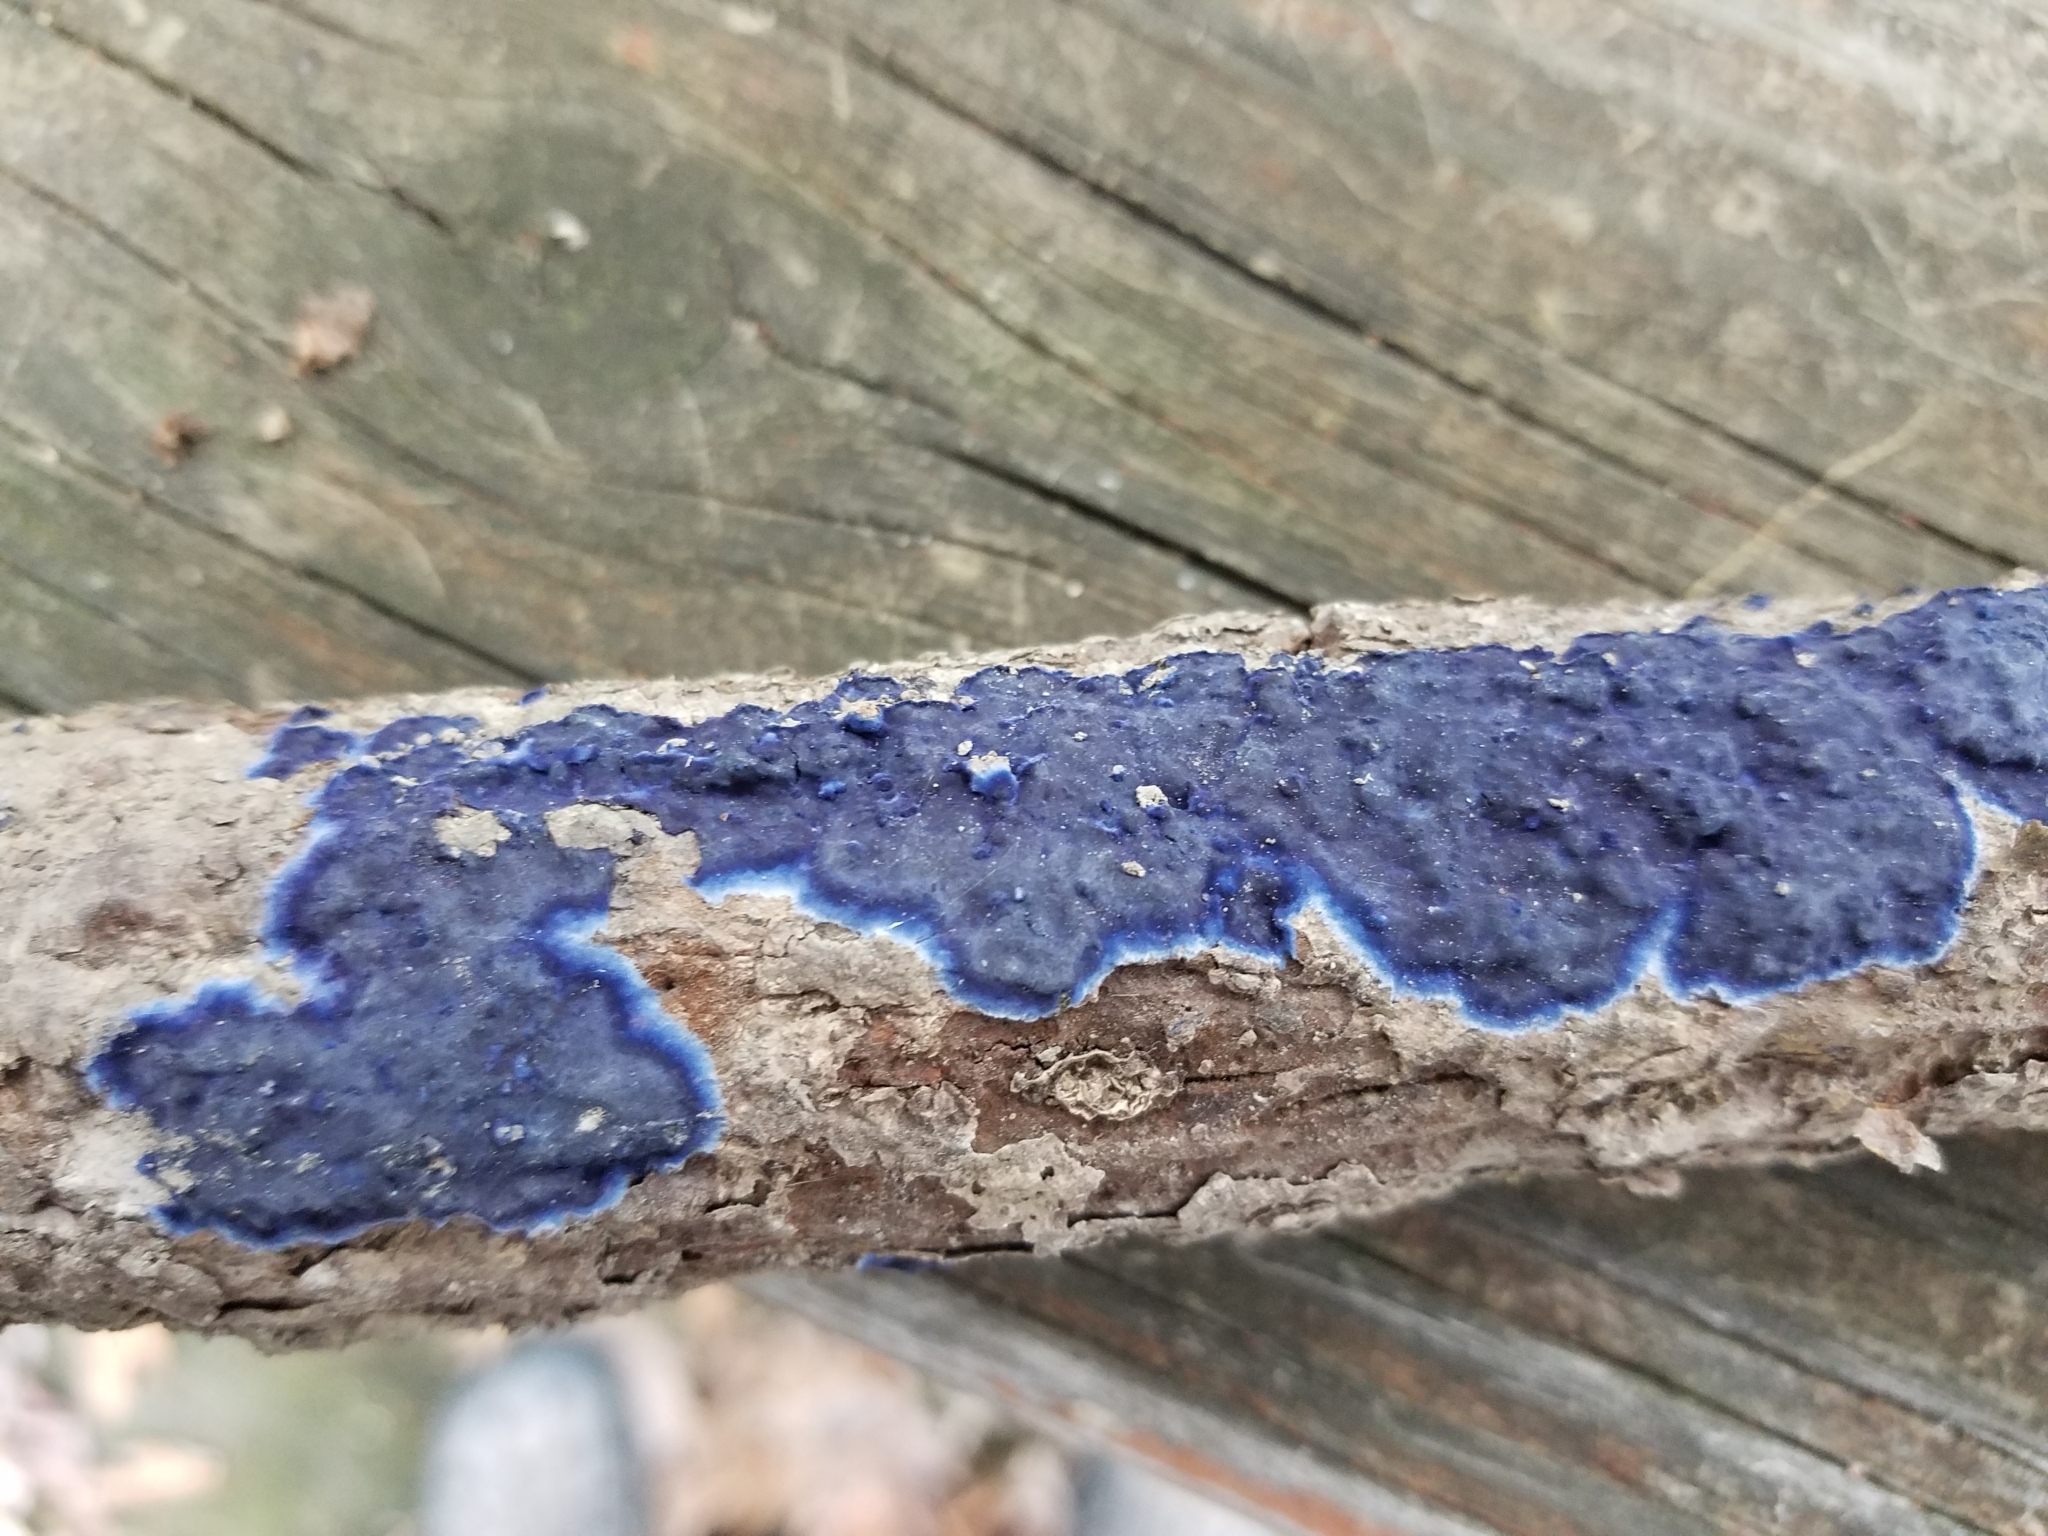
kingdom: Fungi
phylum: Basidiomycota
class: Agaricomycetes
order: Polyporales
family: Phanerochaetaceae
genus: Terana
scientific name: Terana coerulea
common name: Cobalt crust
